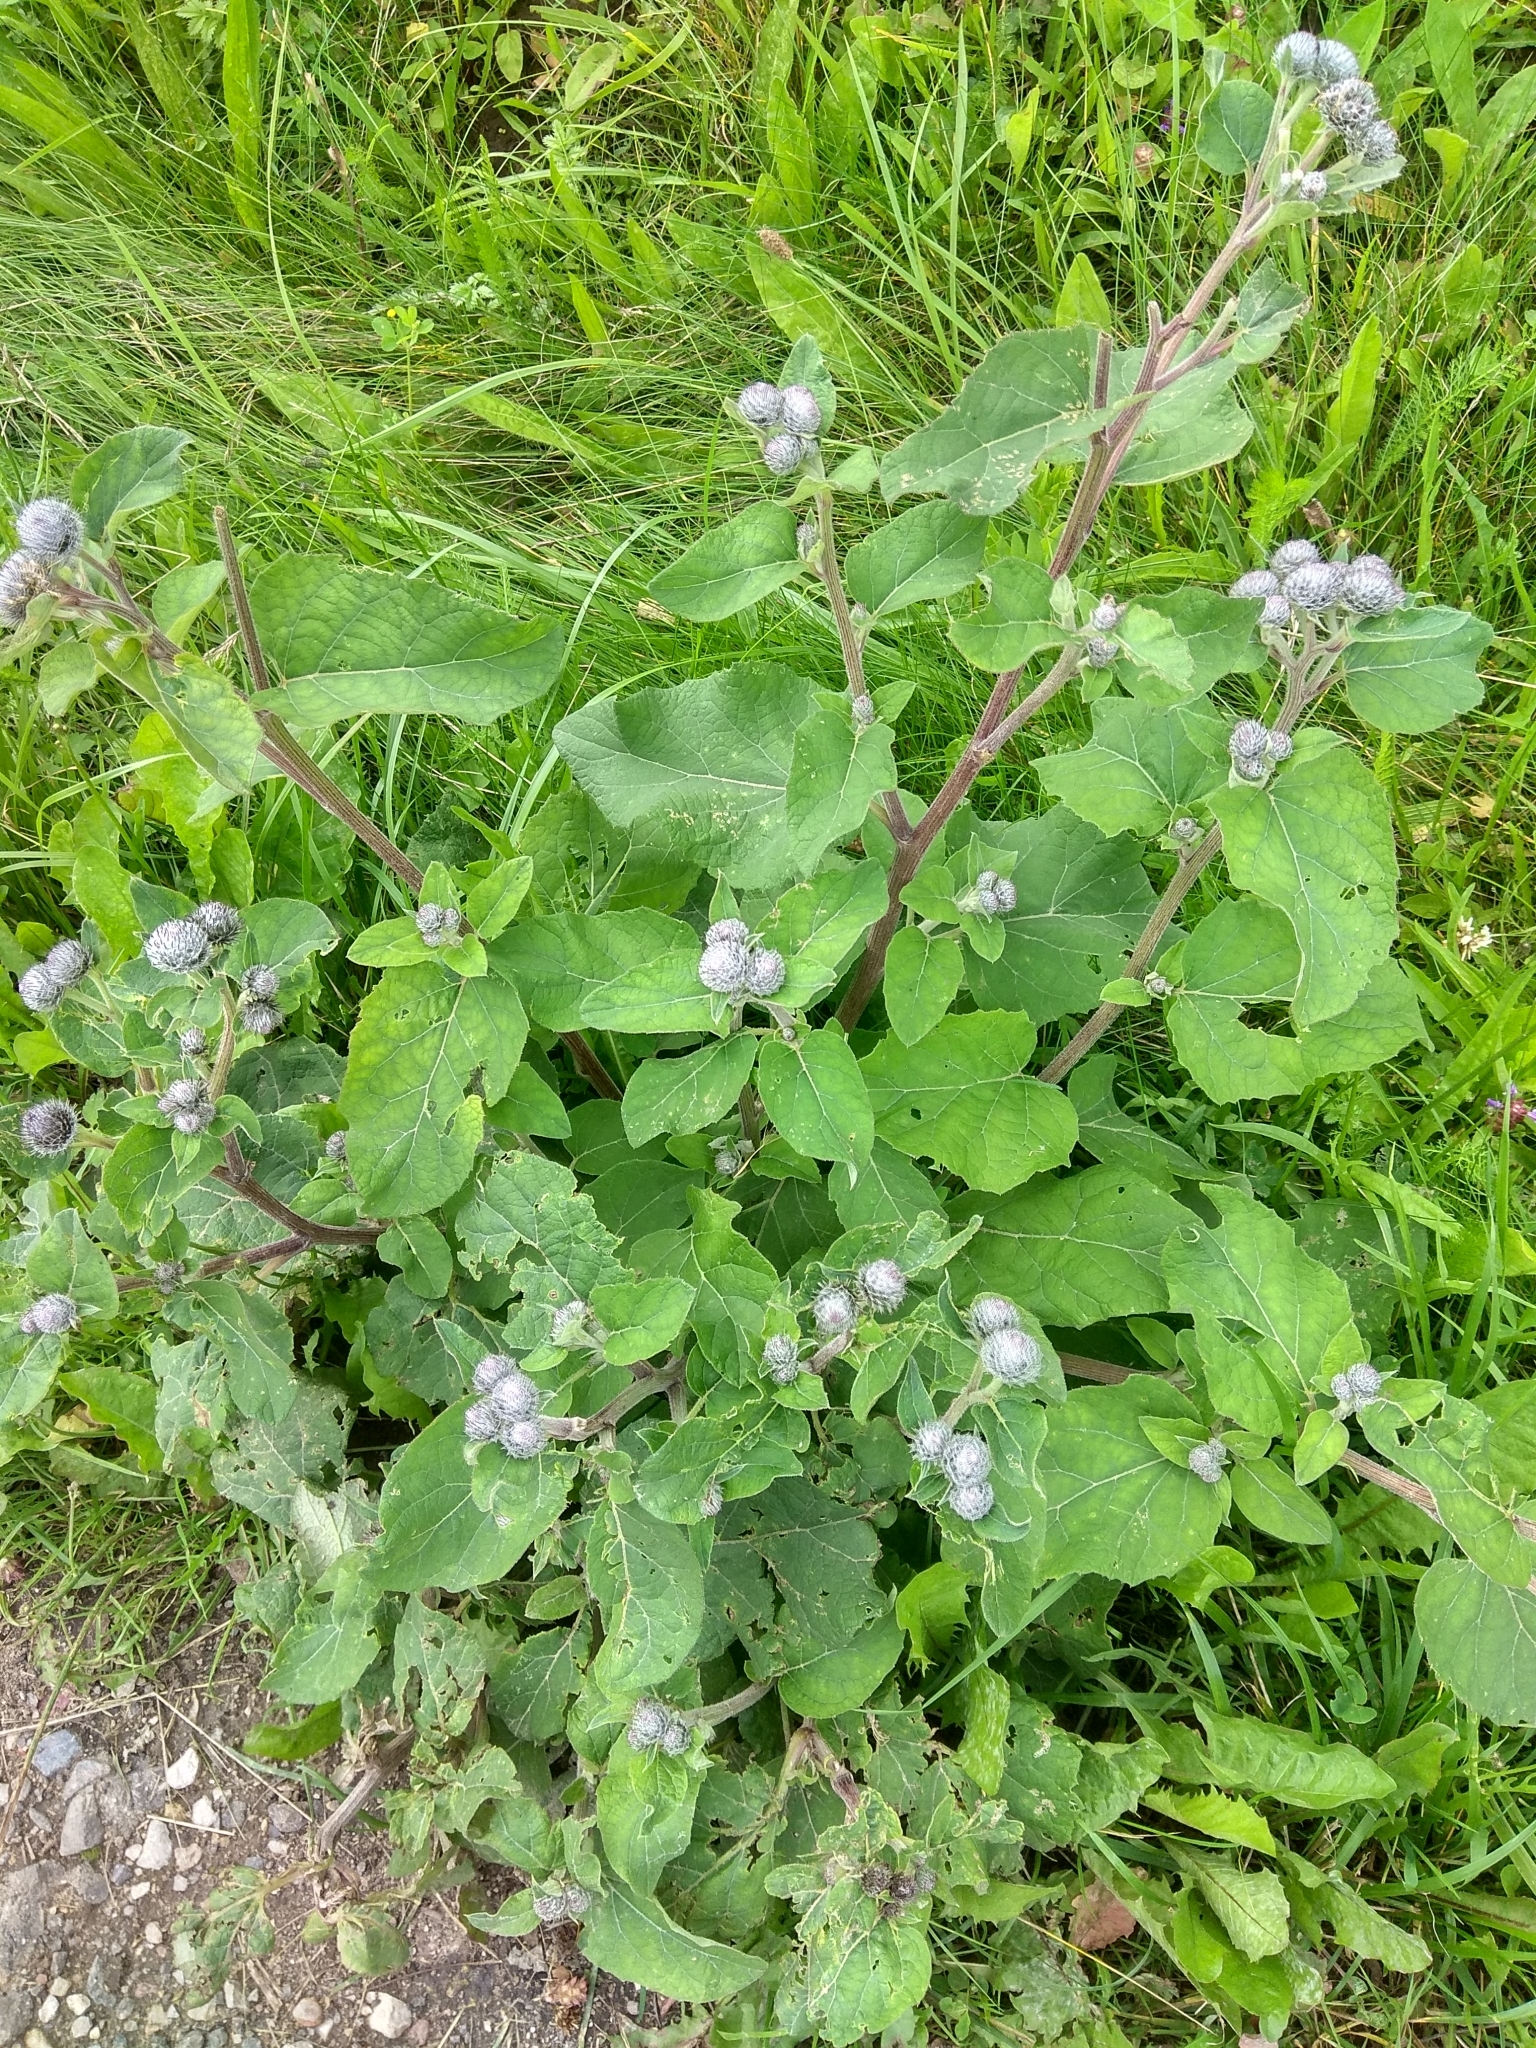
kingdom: Plantae
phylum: Tracheophyta
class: Magnoliopsida
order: Asterales
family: Asteraceae
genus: Arctium
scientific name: Arctium tomentosum
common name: Woolly burdock
